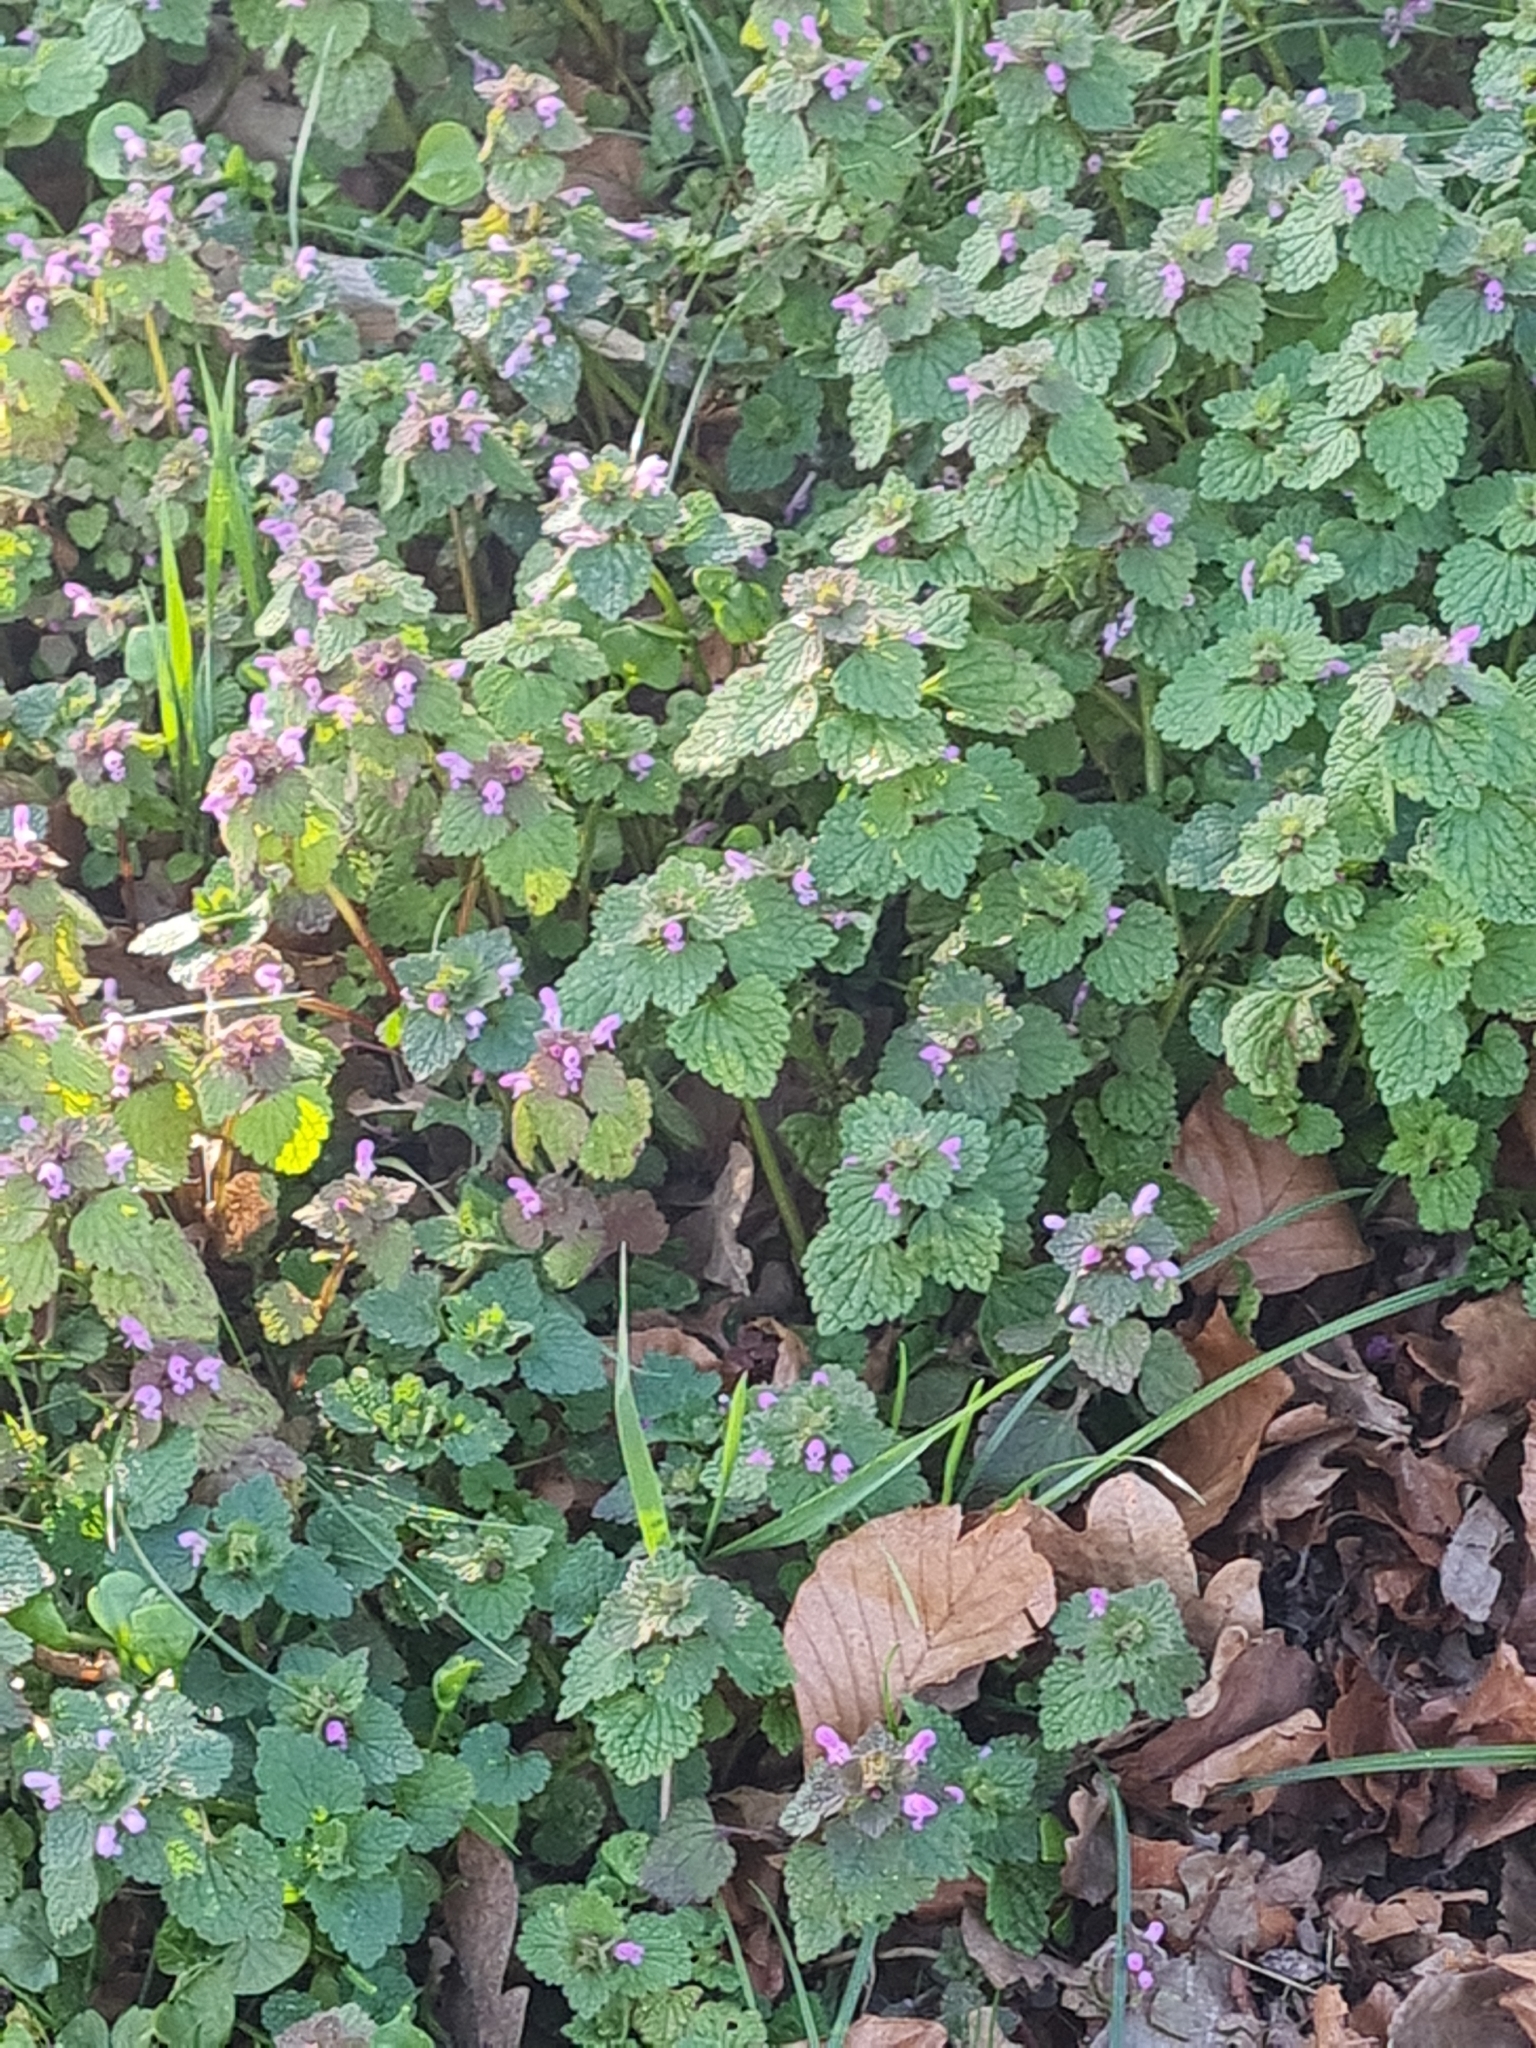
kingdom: Plantae
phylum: Tracheophyta
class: Magnoliopsida
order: Lamiales
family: Lamiaceae
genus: Lamium
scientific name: Lamium purpureum
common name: Red dead-nettle
